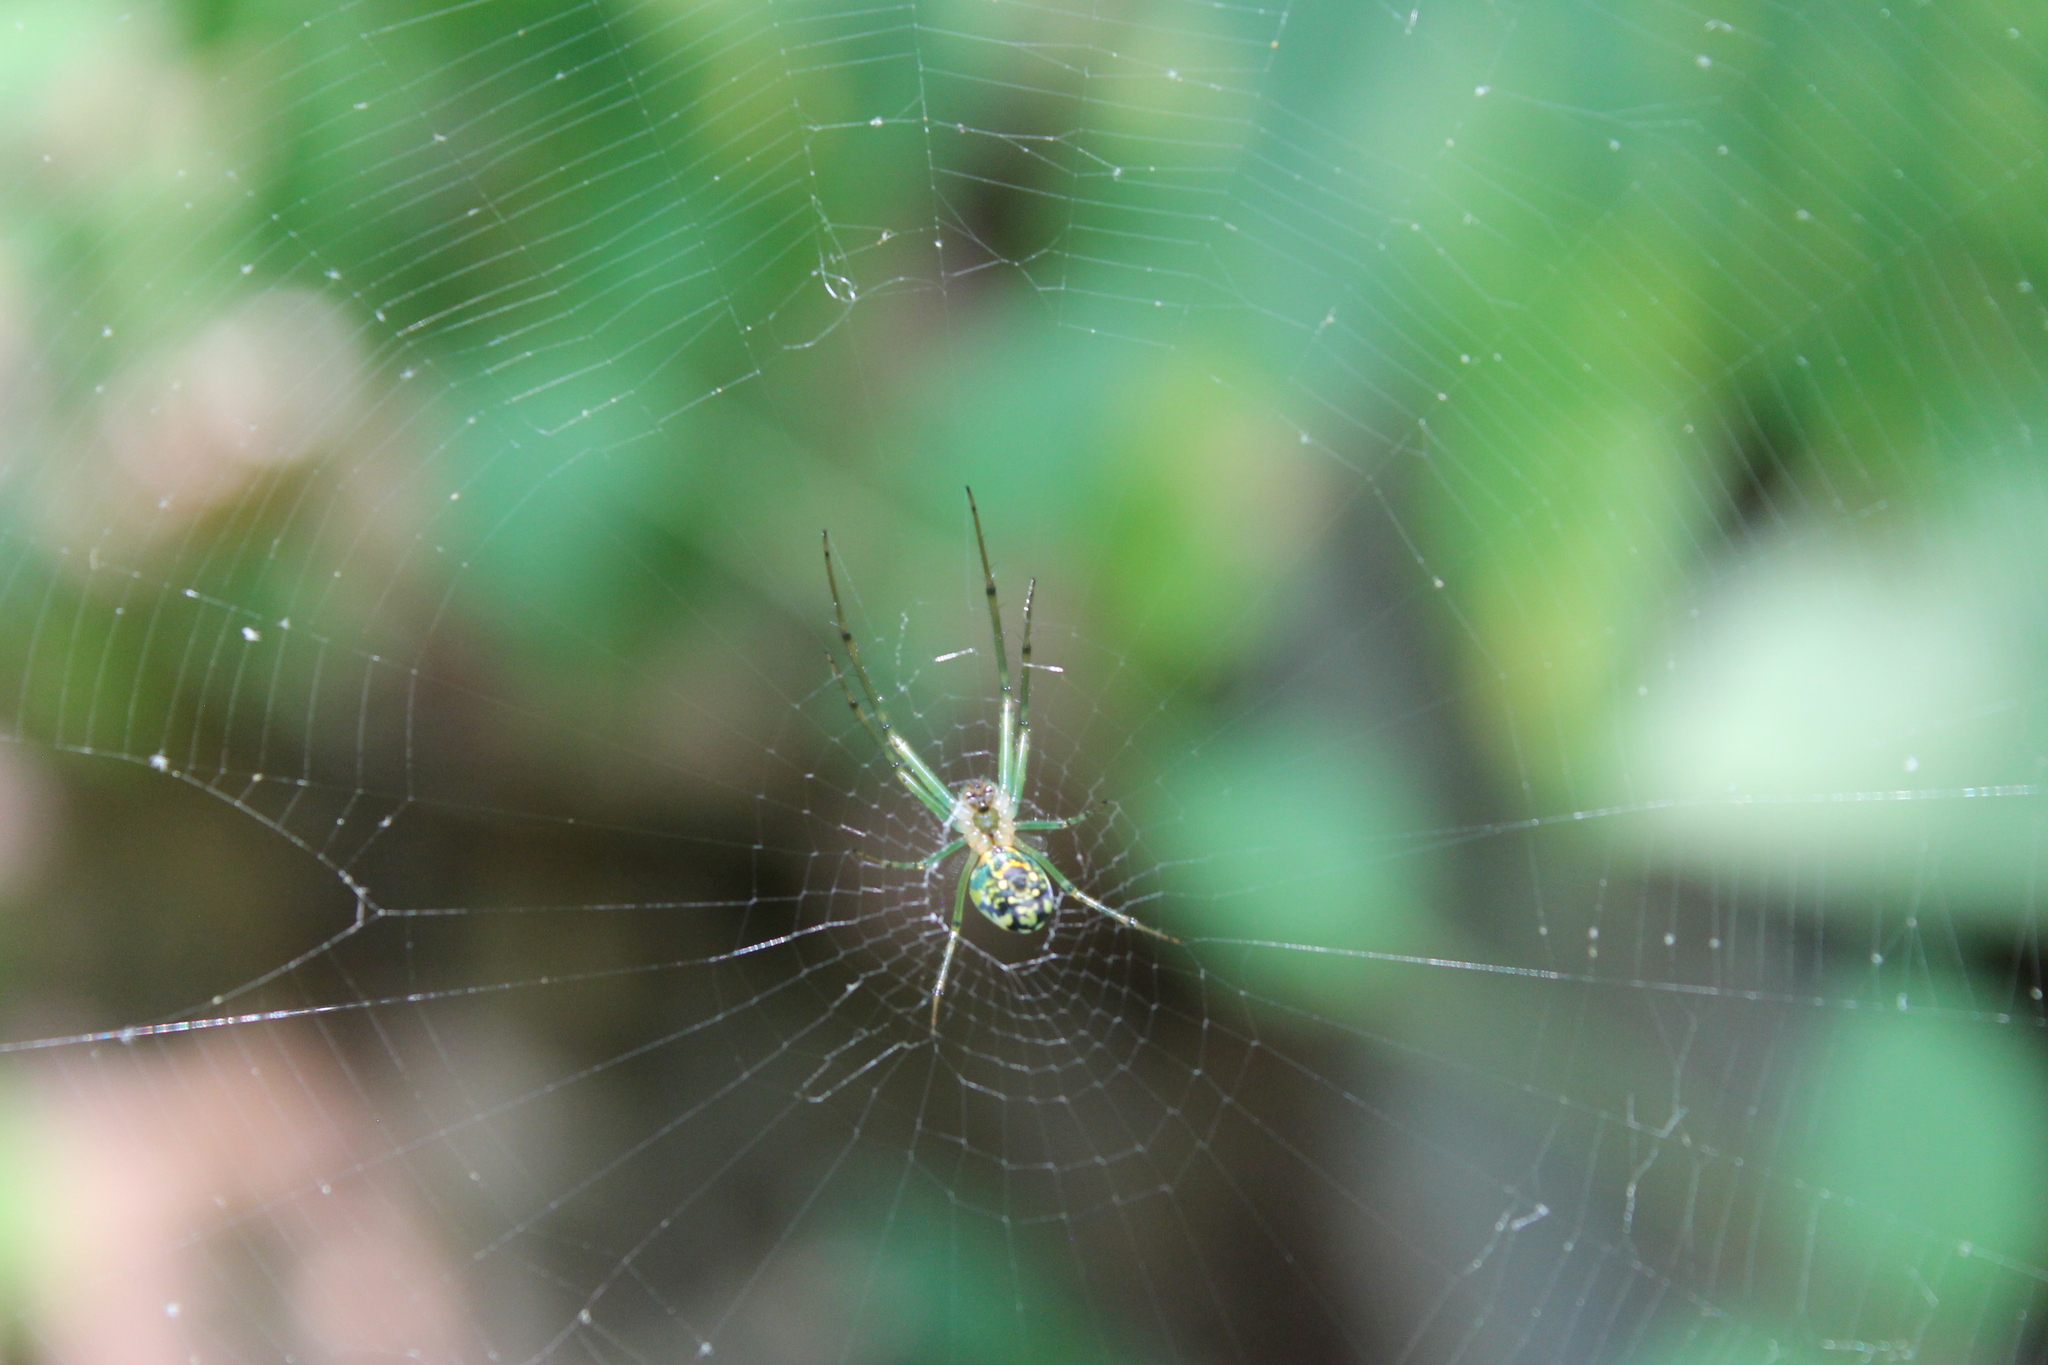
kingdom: Animalia
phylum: Arthropoda
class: Arachnida
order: Araneae
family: Tetragnathidae
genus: Leucauge
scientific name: Leucauge venusta
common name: Longjawed orb weavers
